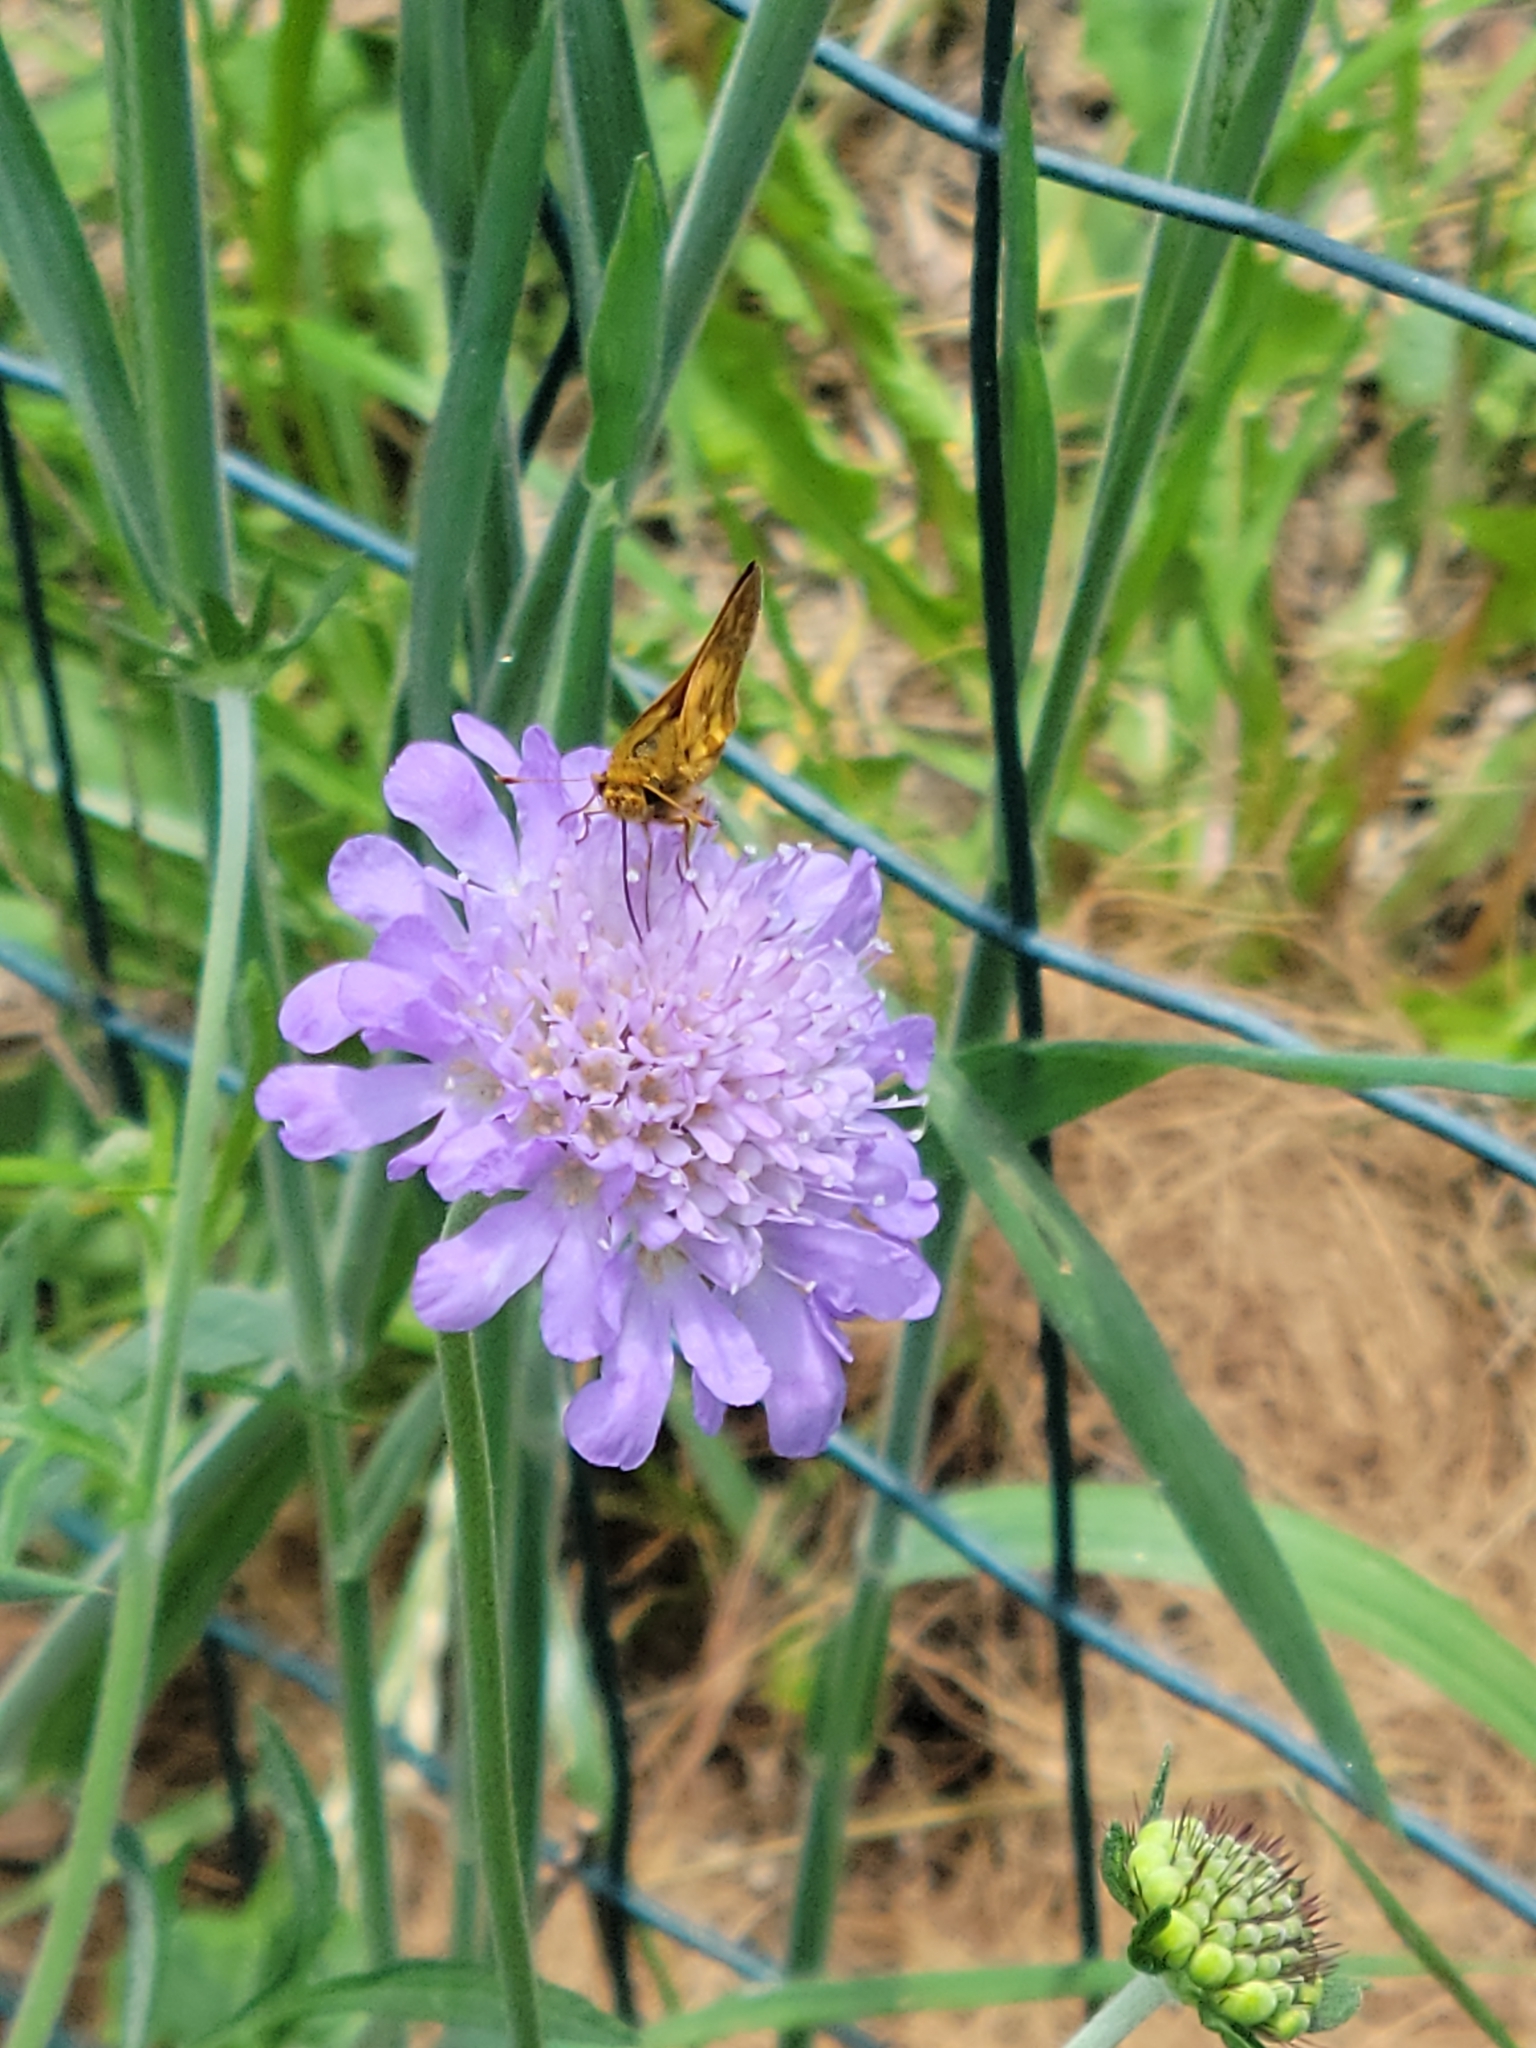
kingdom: Animalia
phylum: Arthropoda
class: Insecta
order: Lepidoptera
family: Hesperiidae
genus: Polites
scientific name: Polites coras
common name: Peck's skipper
